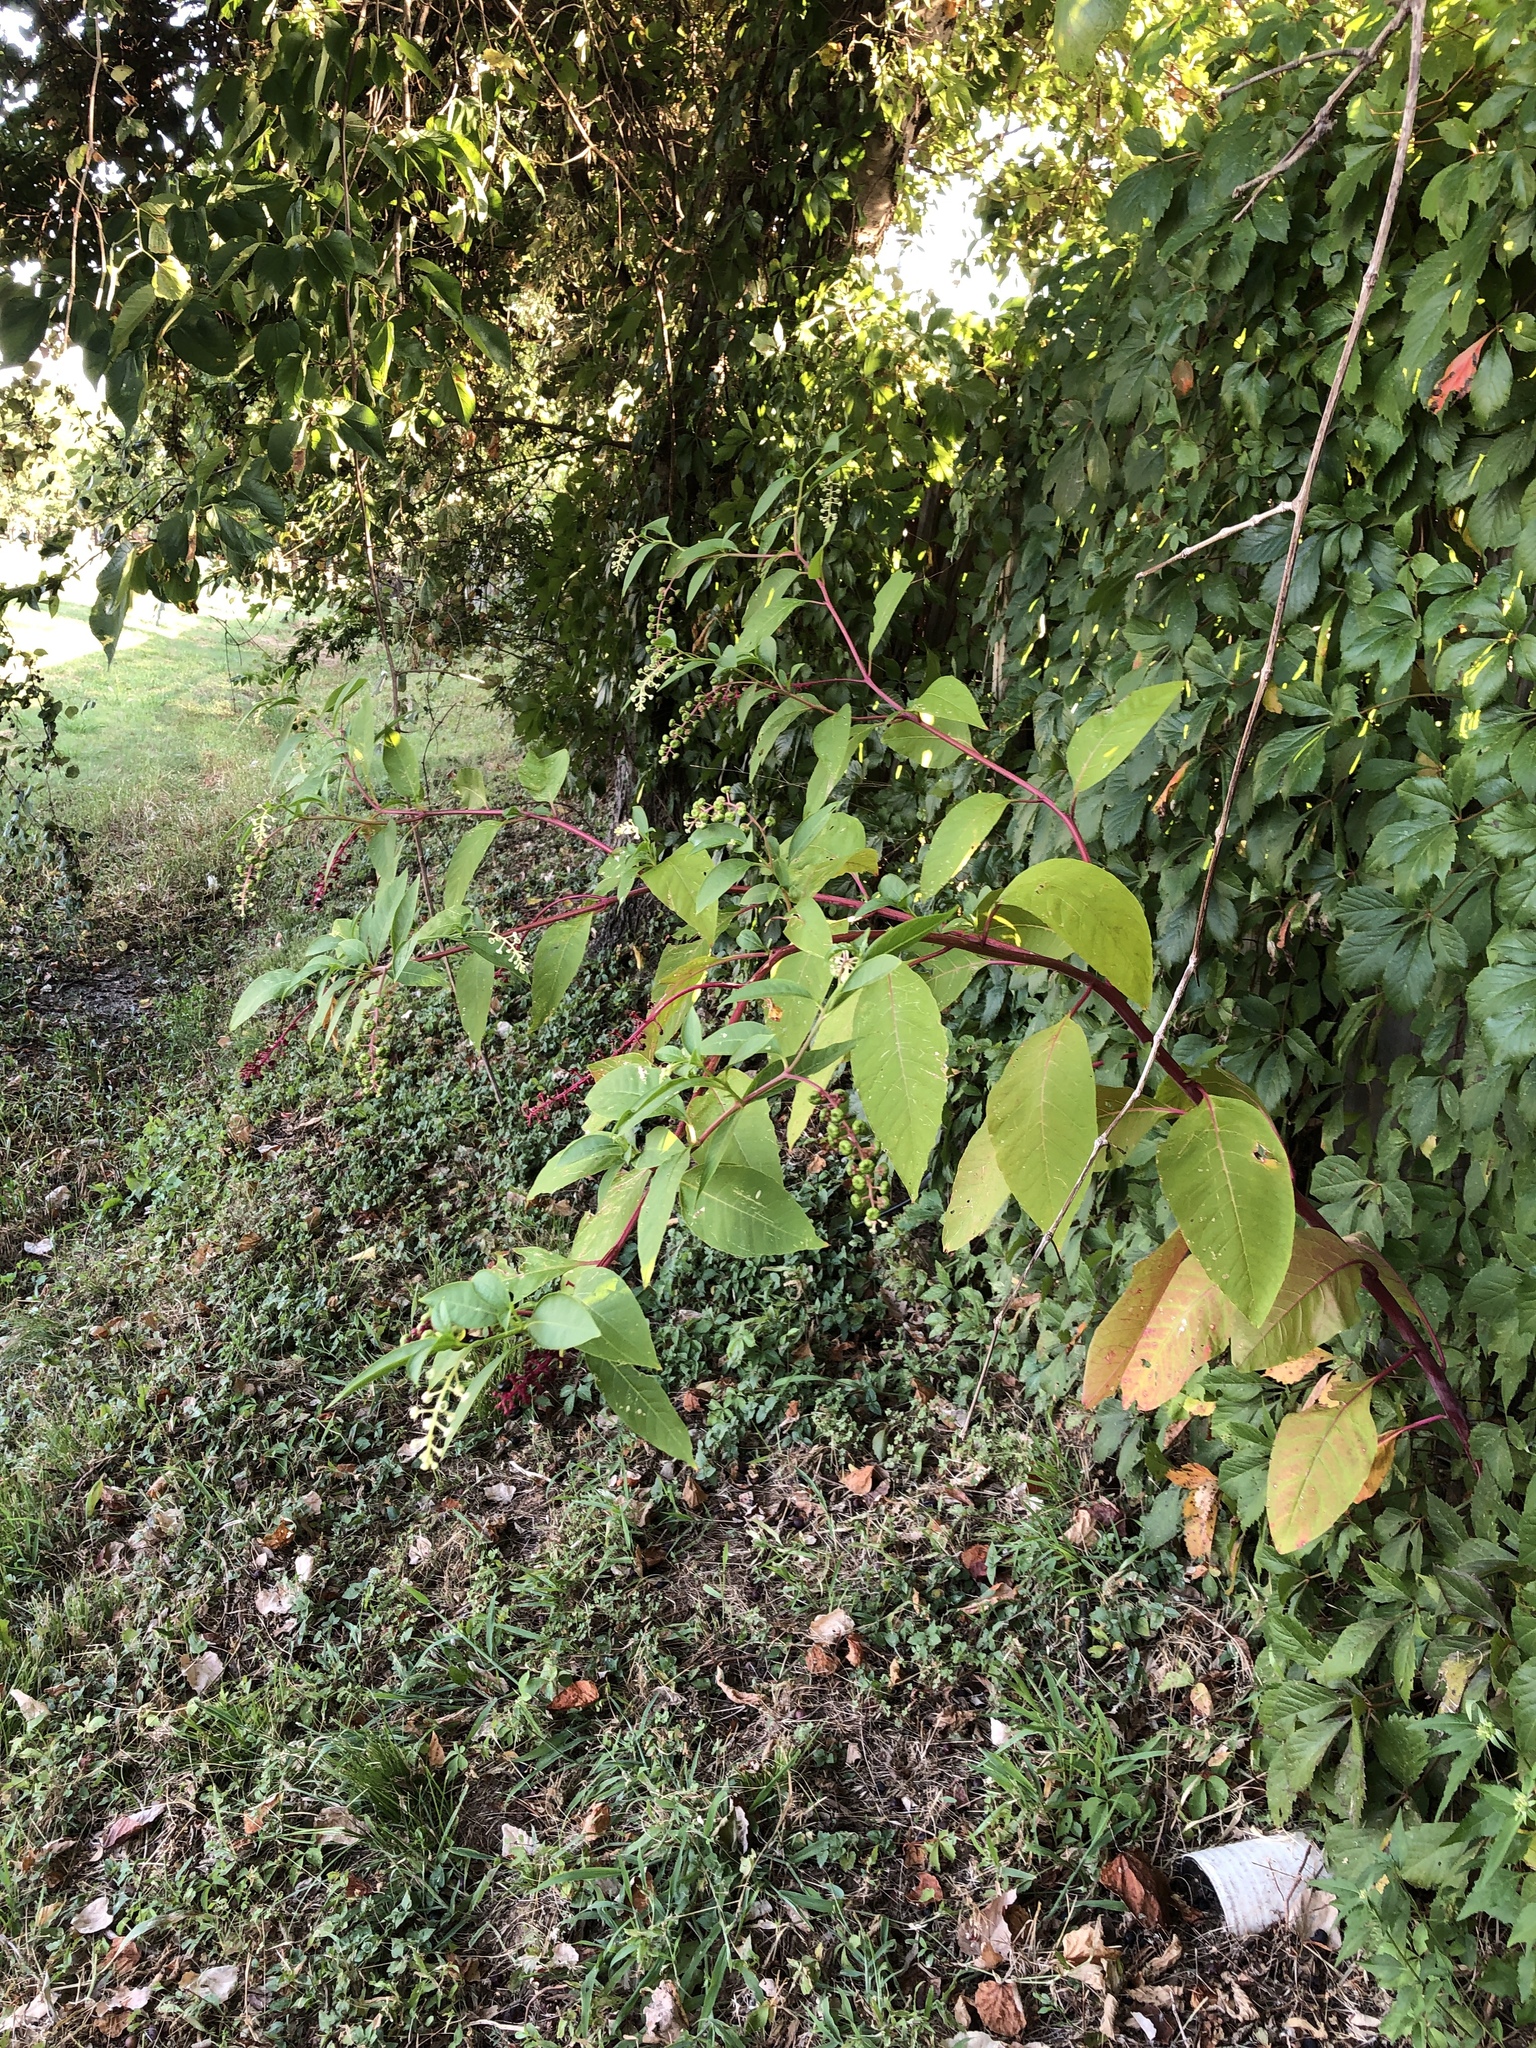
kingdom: Plantae
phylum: Tracheophyta
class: Magnoliopsida
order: Caryophyllales
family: Phytolaccaceae
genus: Phytolacca
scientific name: Phytolacca americana
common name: American pokeweed
